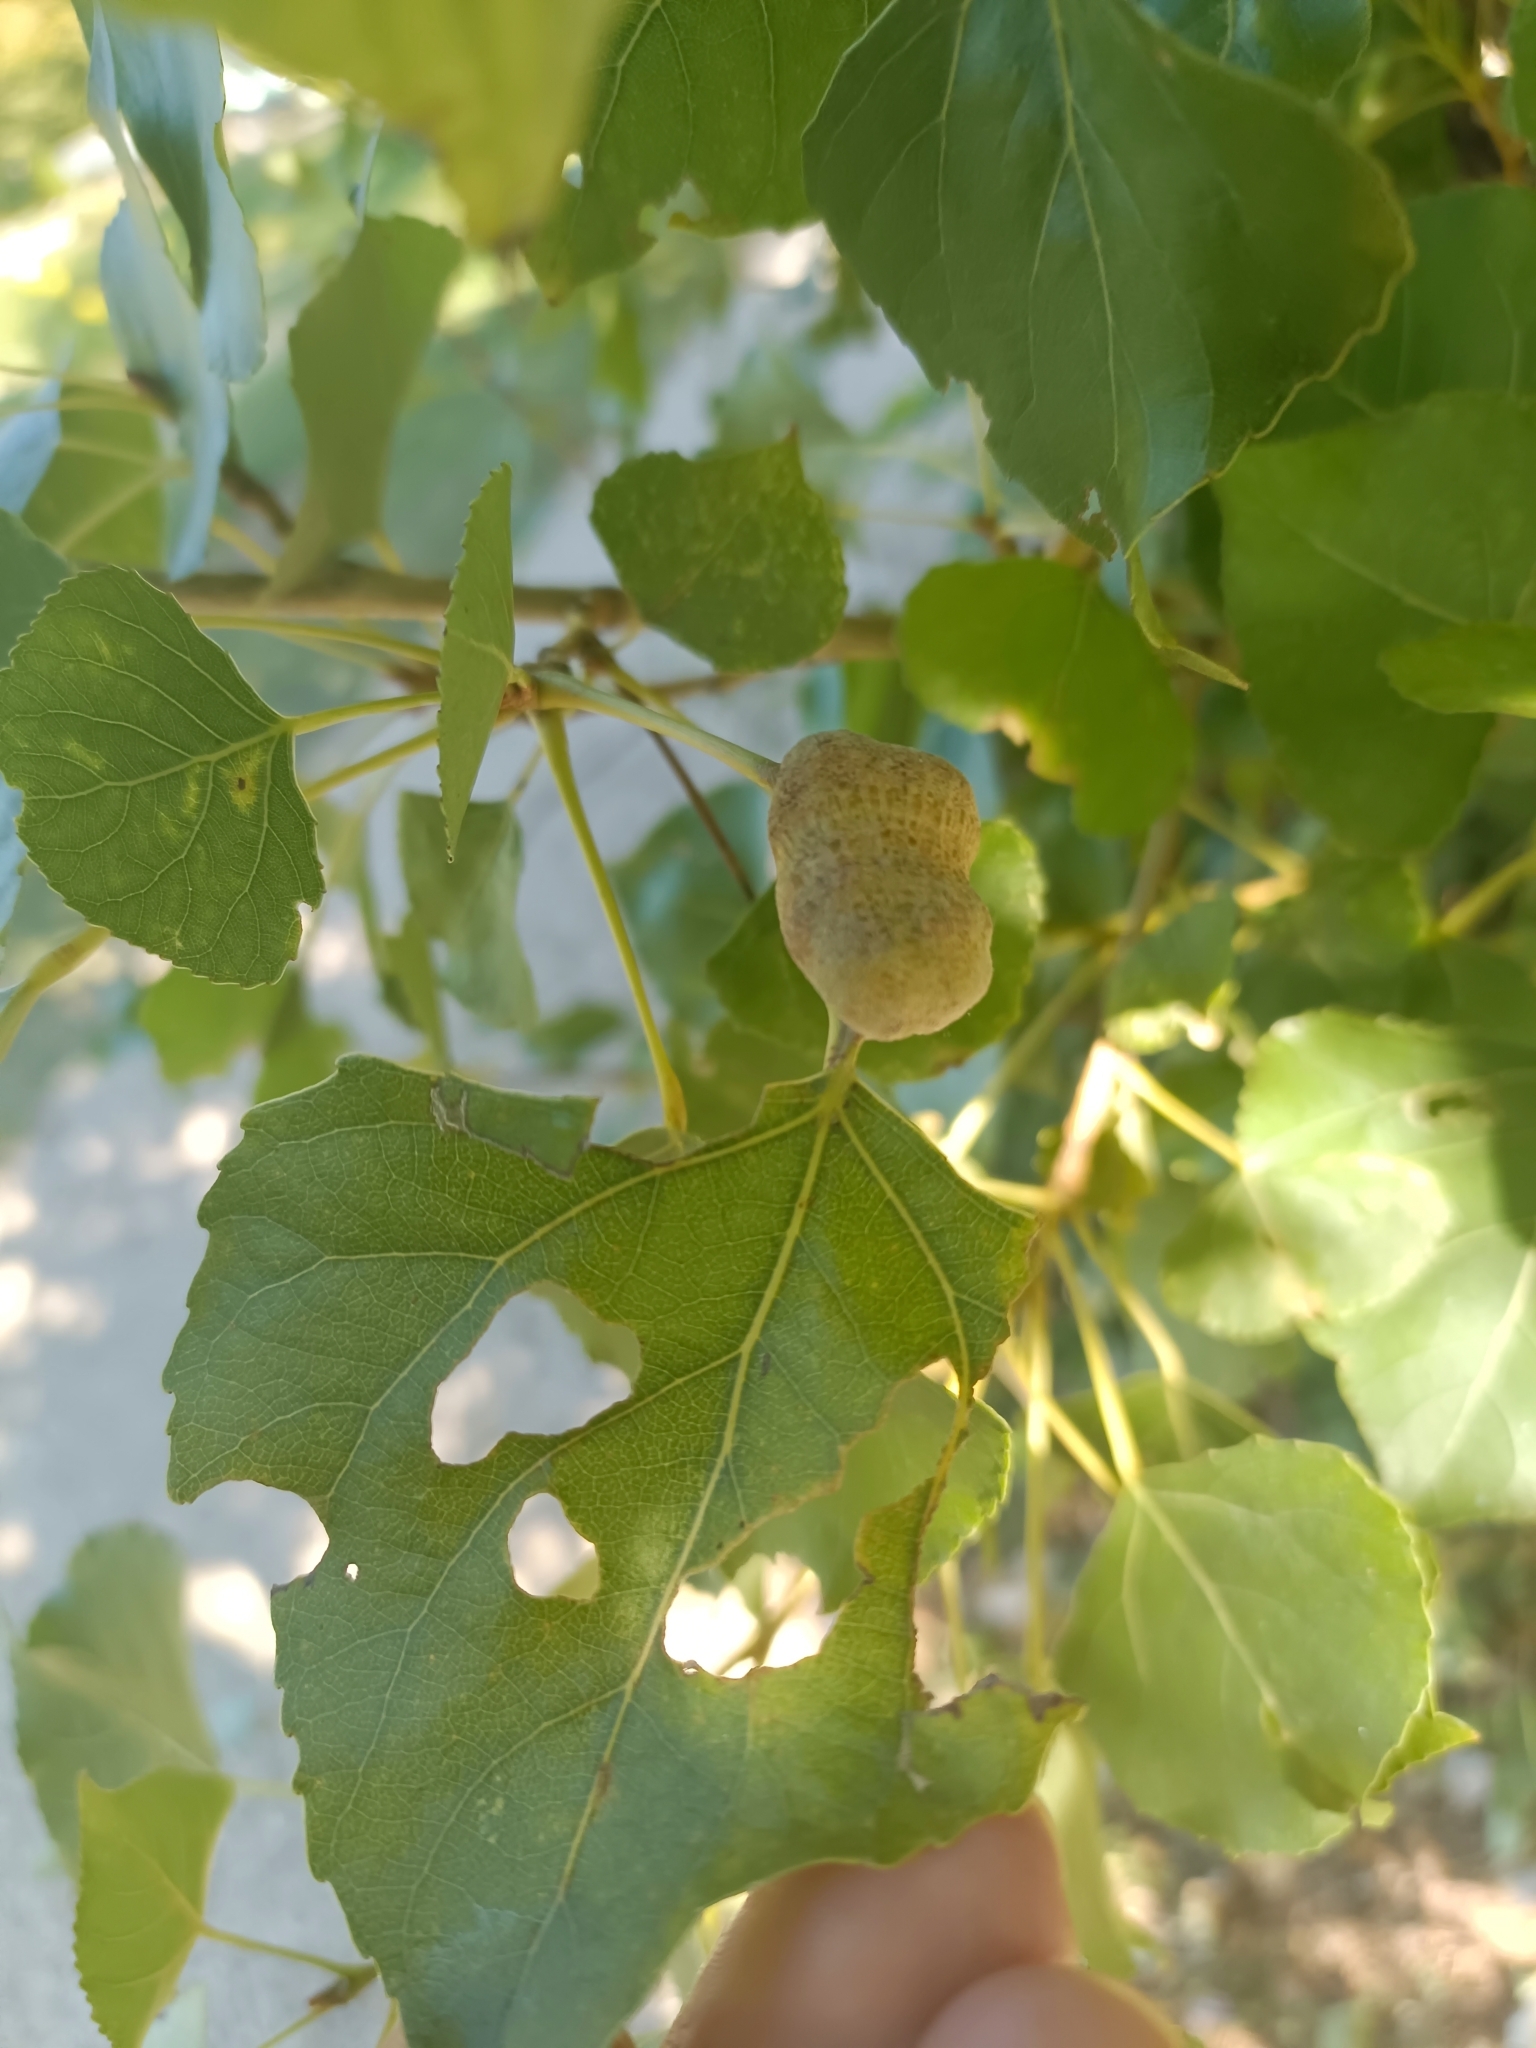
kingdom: Animalia
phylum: Arthropoda
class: Insecta
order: Hemiptera
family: Aphididae
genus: Pemphigus
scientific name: Pemphigus spyrothecae
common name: Aphid
